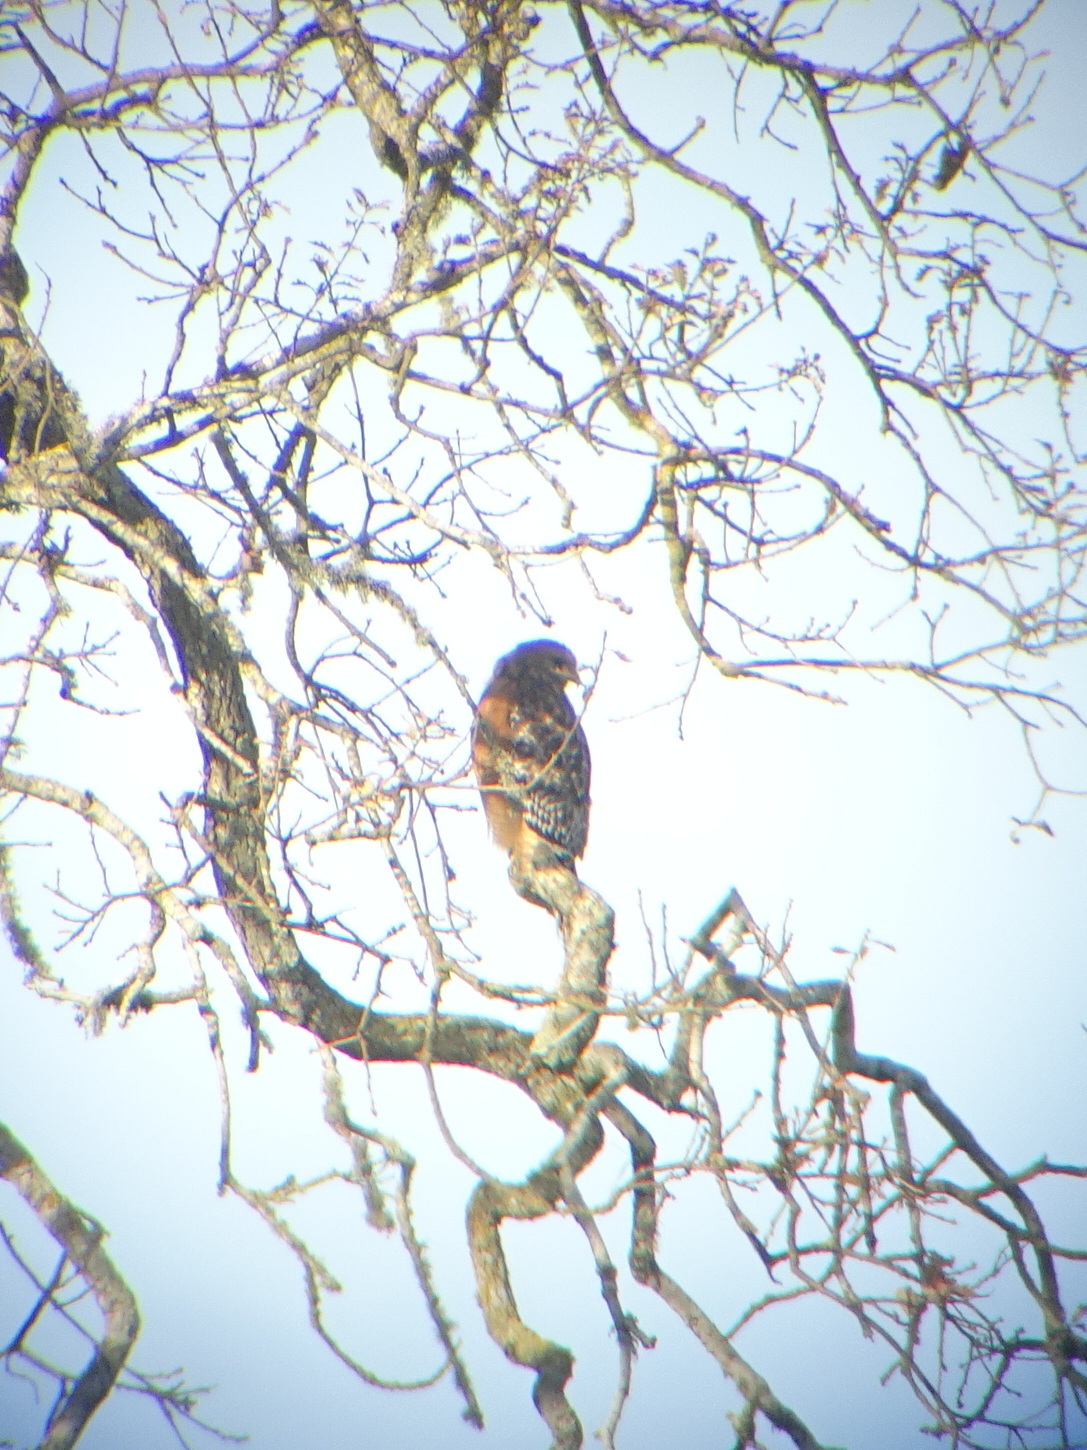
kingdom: Animalia
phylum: Chordata
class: Aves
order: Accipitriformes
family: Accipitridae
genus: Buteo
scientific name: Buteo lineatus
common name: Red-shouldered hawk
